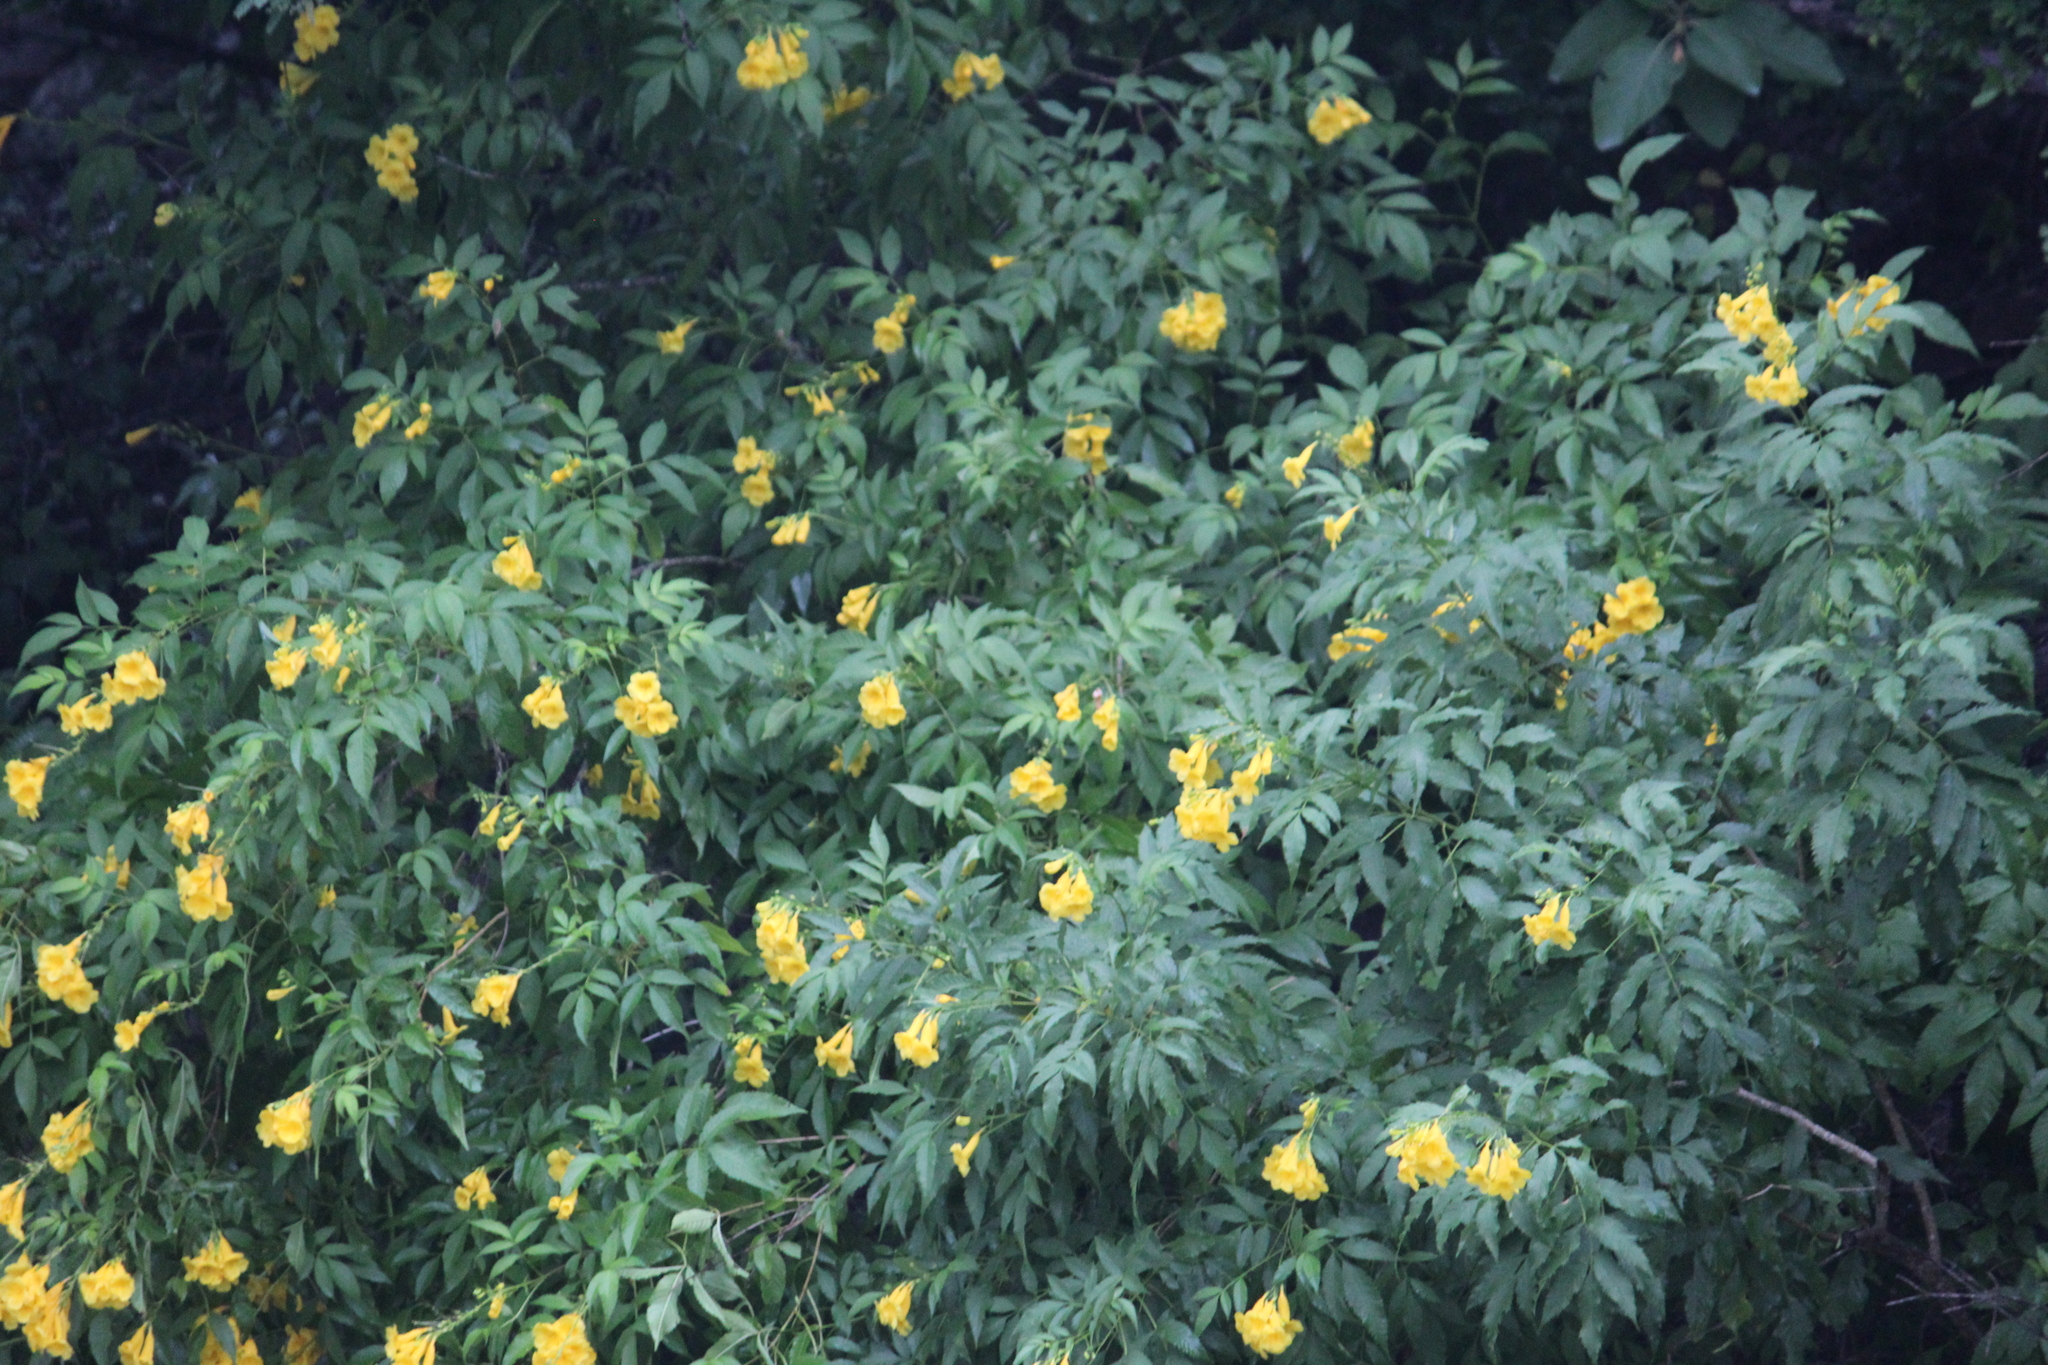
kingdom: Plantae
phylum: Tracheophyta
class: Magnoliopsida
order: Lamiales
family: Bignoniaceae
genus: Tecoma
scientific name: Tecoma stans
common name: Yellow trumpetbush
